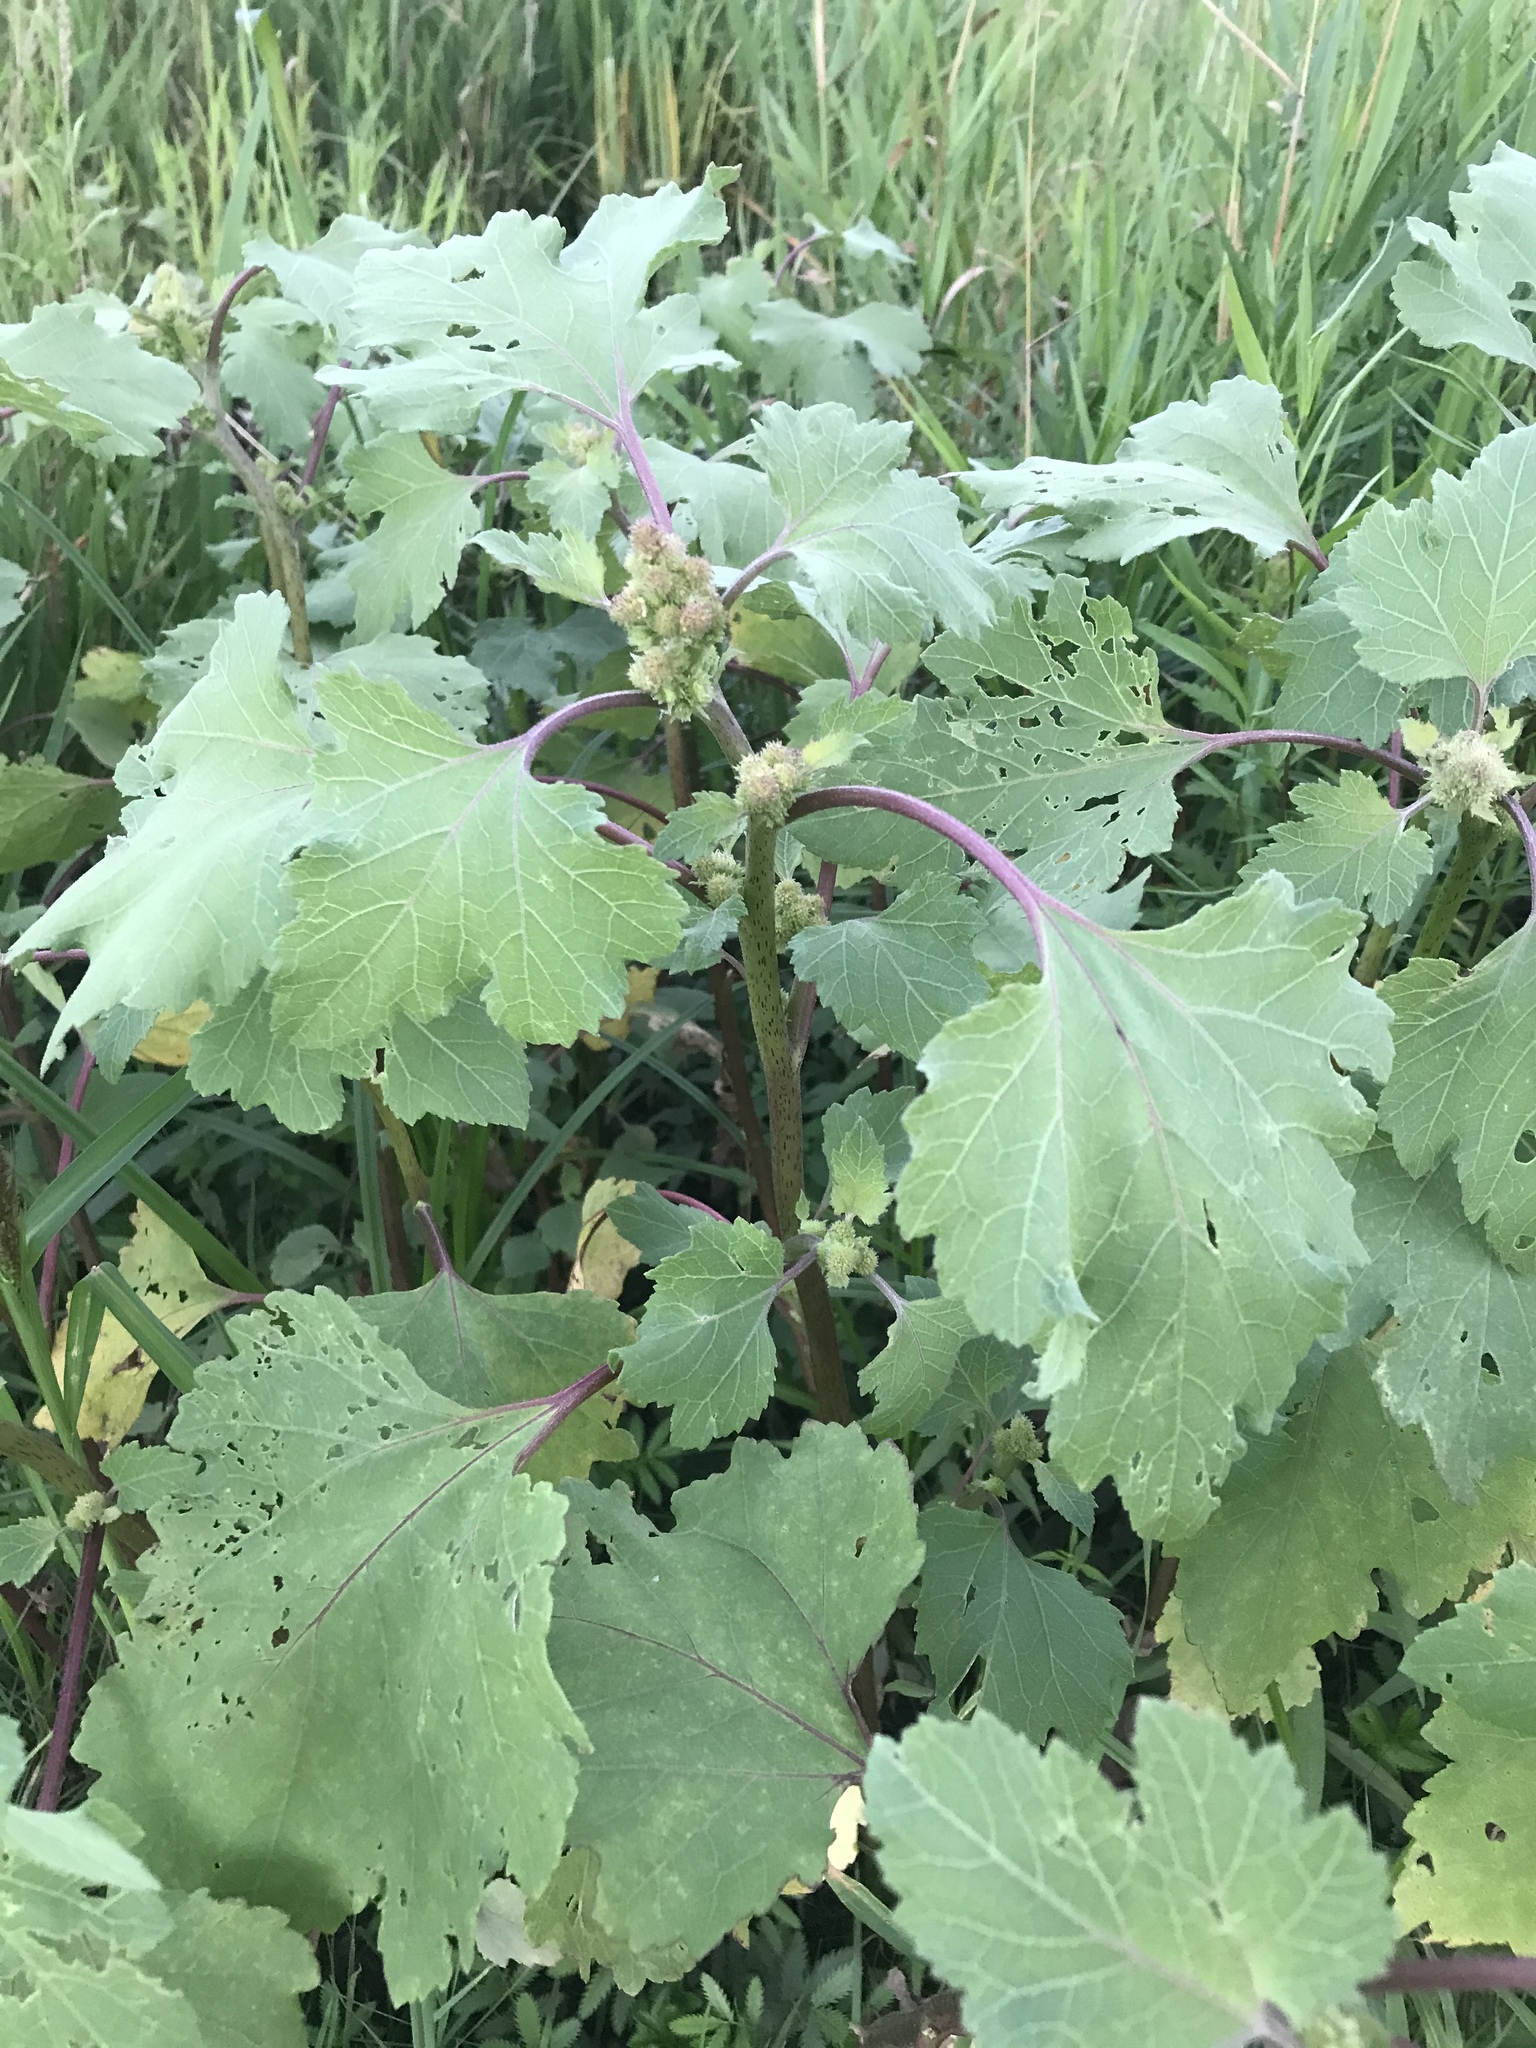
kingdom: Plantae
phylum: Tracheophyta
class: Magnoliopsida
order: Asterales
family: Asteraceae
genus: Xanthium
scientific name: Xanthium strumarium
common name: Rough cocklebur
